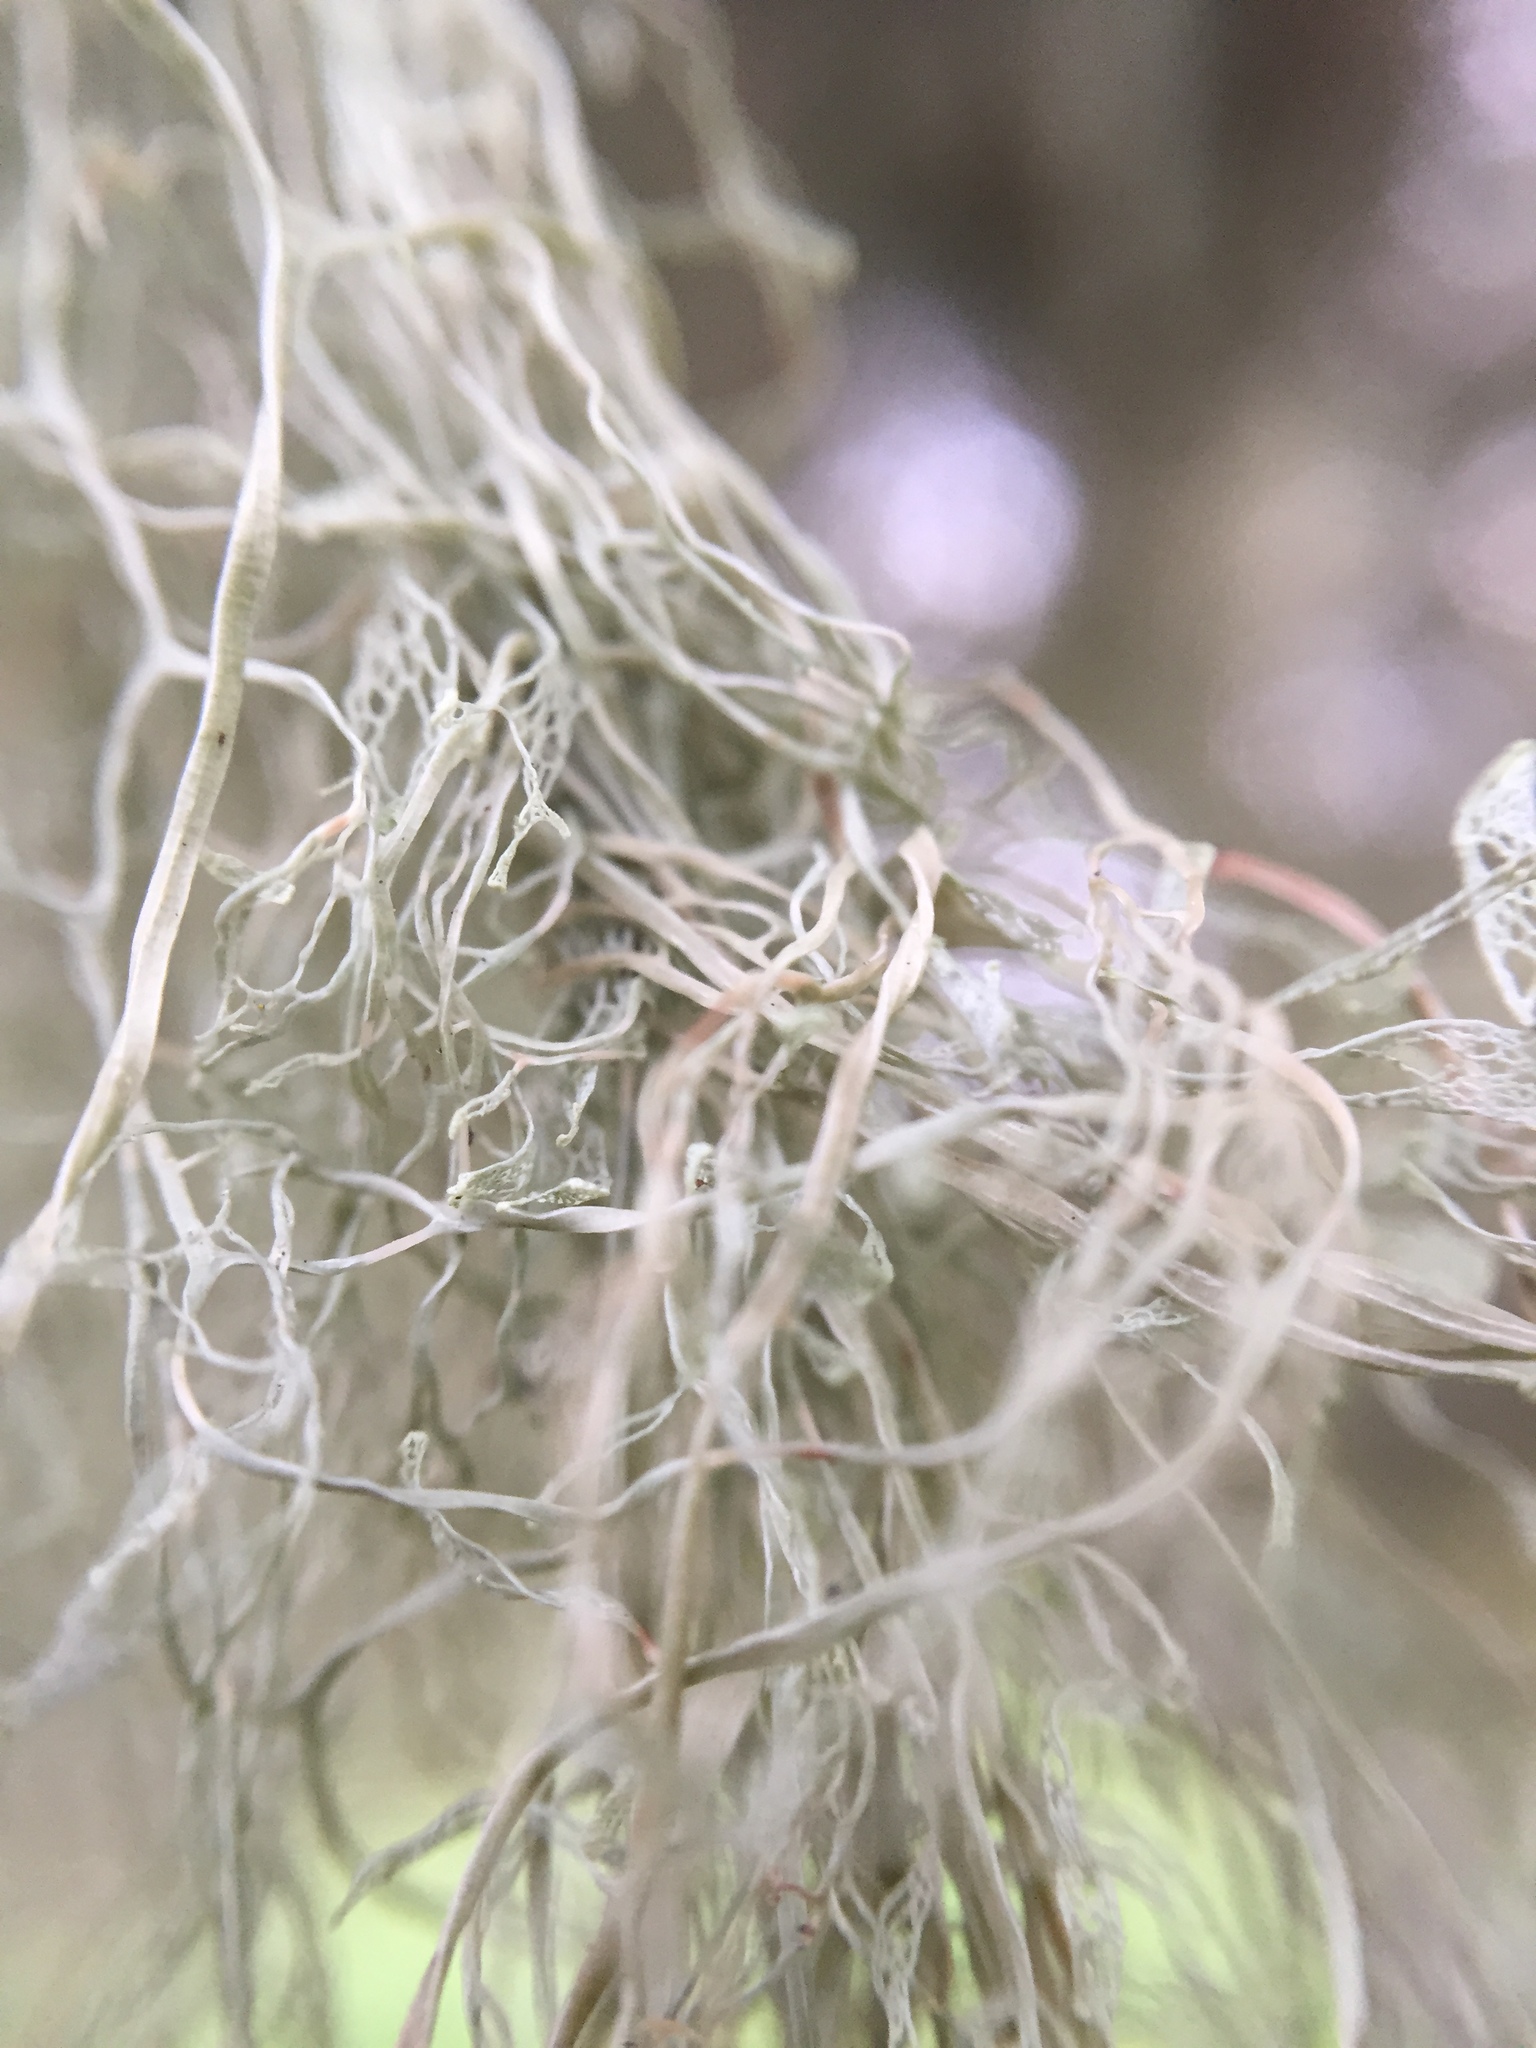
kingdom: Fungi
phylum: Ascomycota
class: Lecanoromycetes
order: Lecanorales
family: Ramalinaceae
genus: Ramalina
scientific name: Ramalina menziesii
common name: Lace lichen
